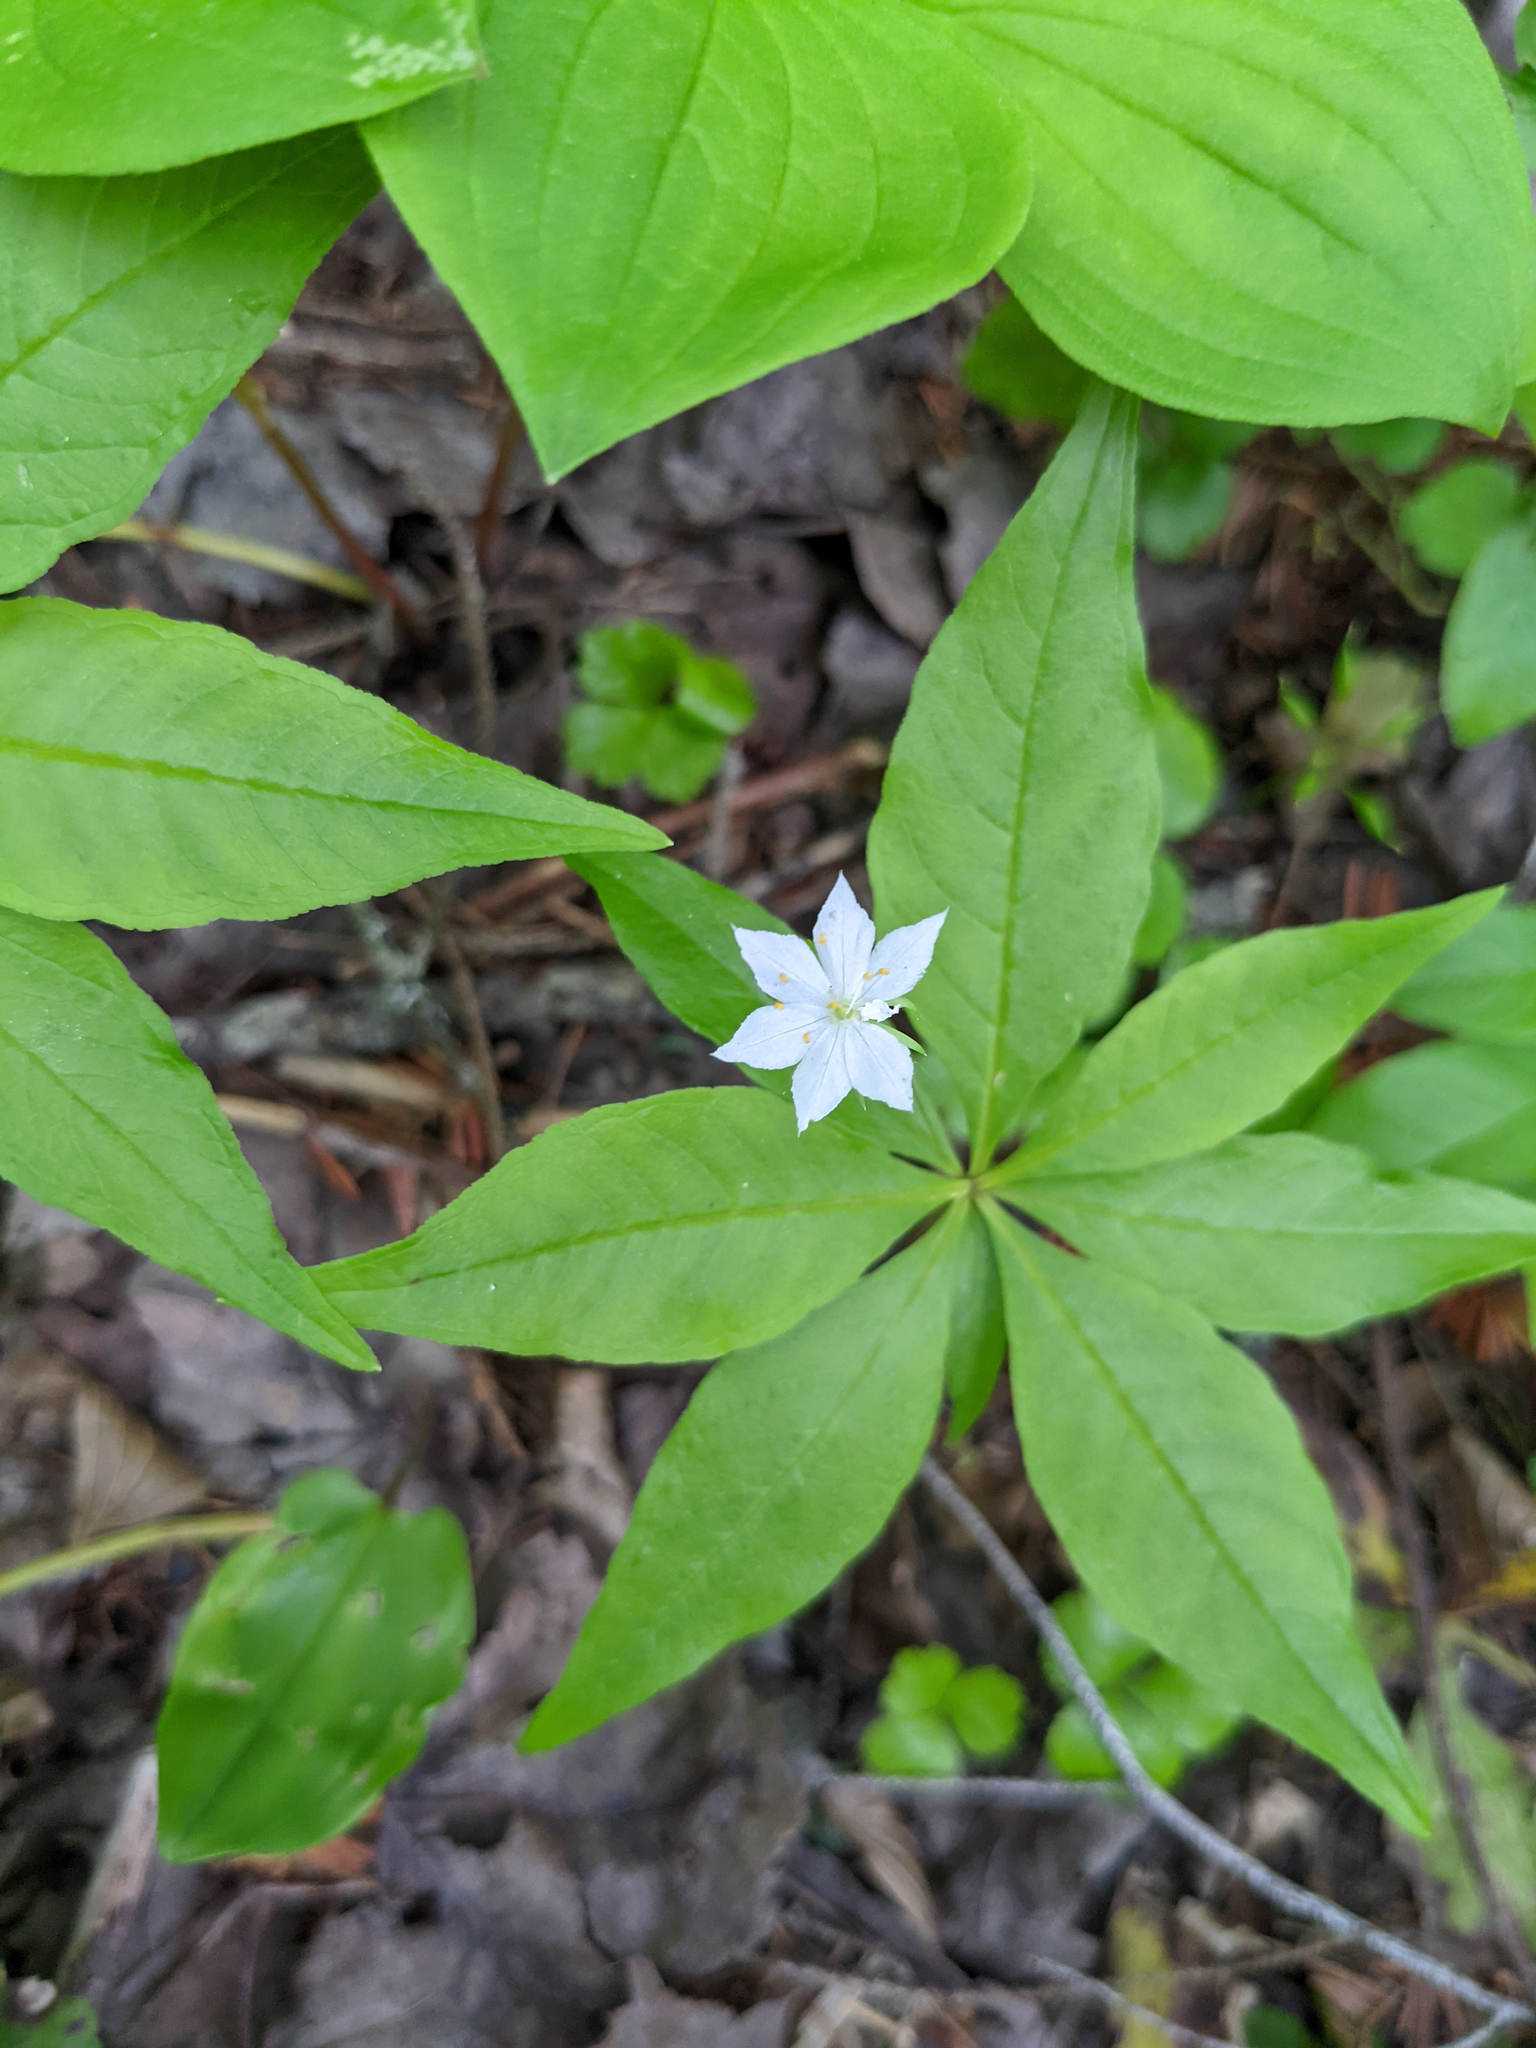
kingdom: Plantae
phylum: Tracheophyta
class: Magnoliopsida
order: Ericales
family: Primulaceae
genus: Lysimachia
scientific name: Lysimachia borealis
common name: American starflower
